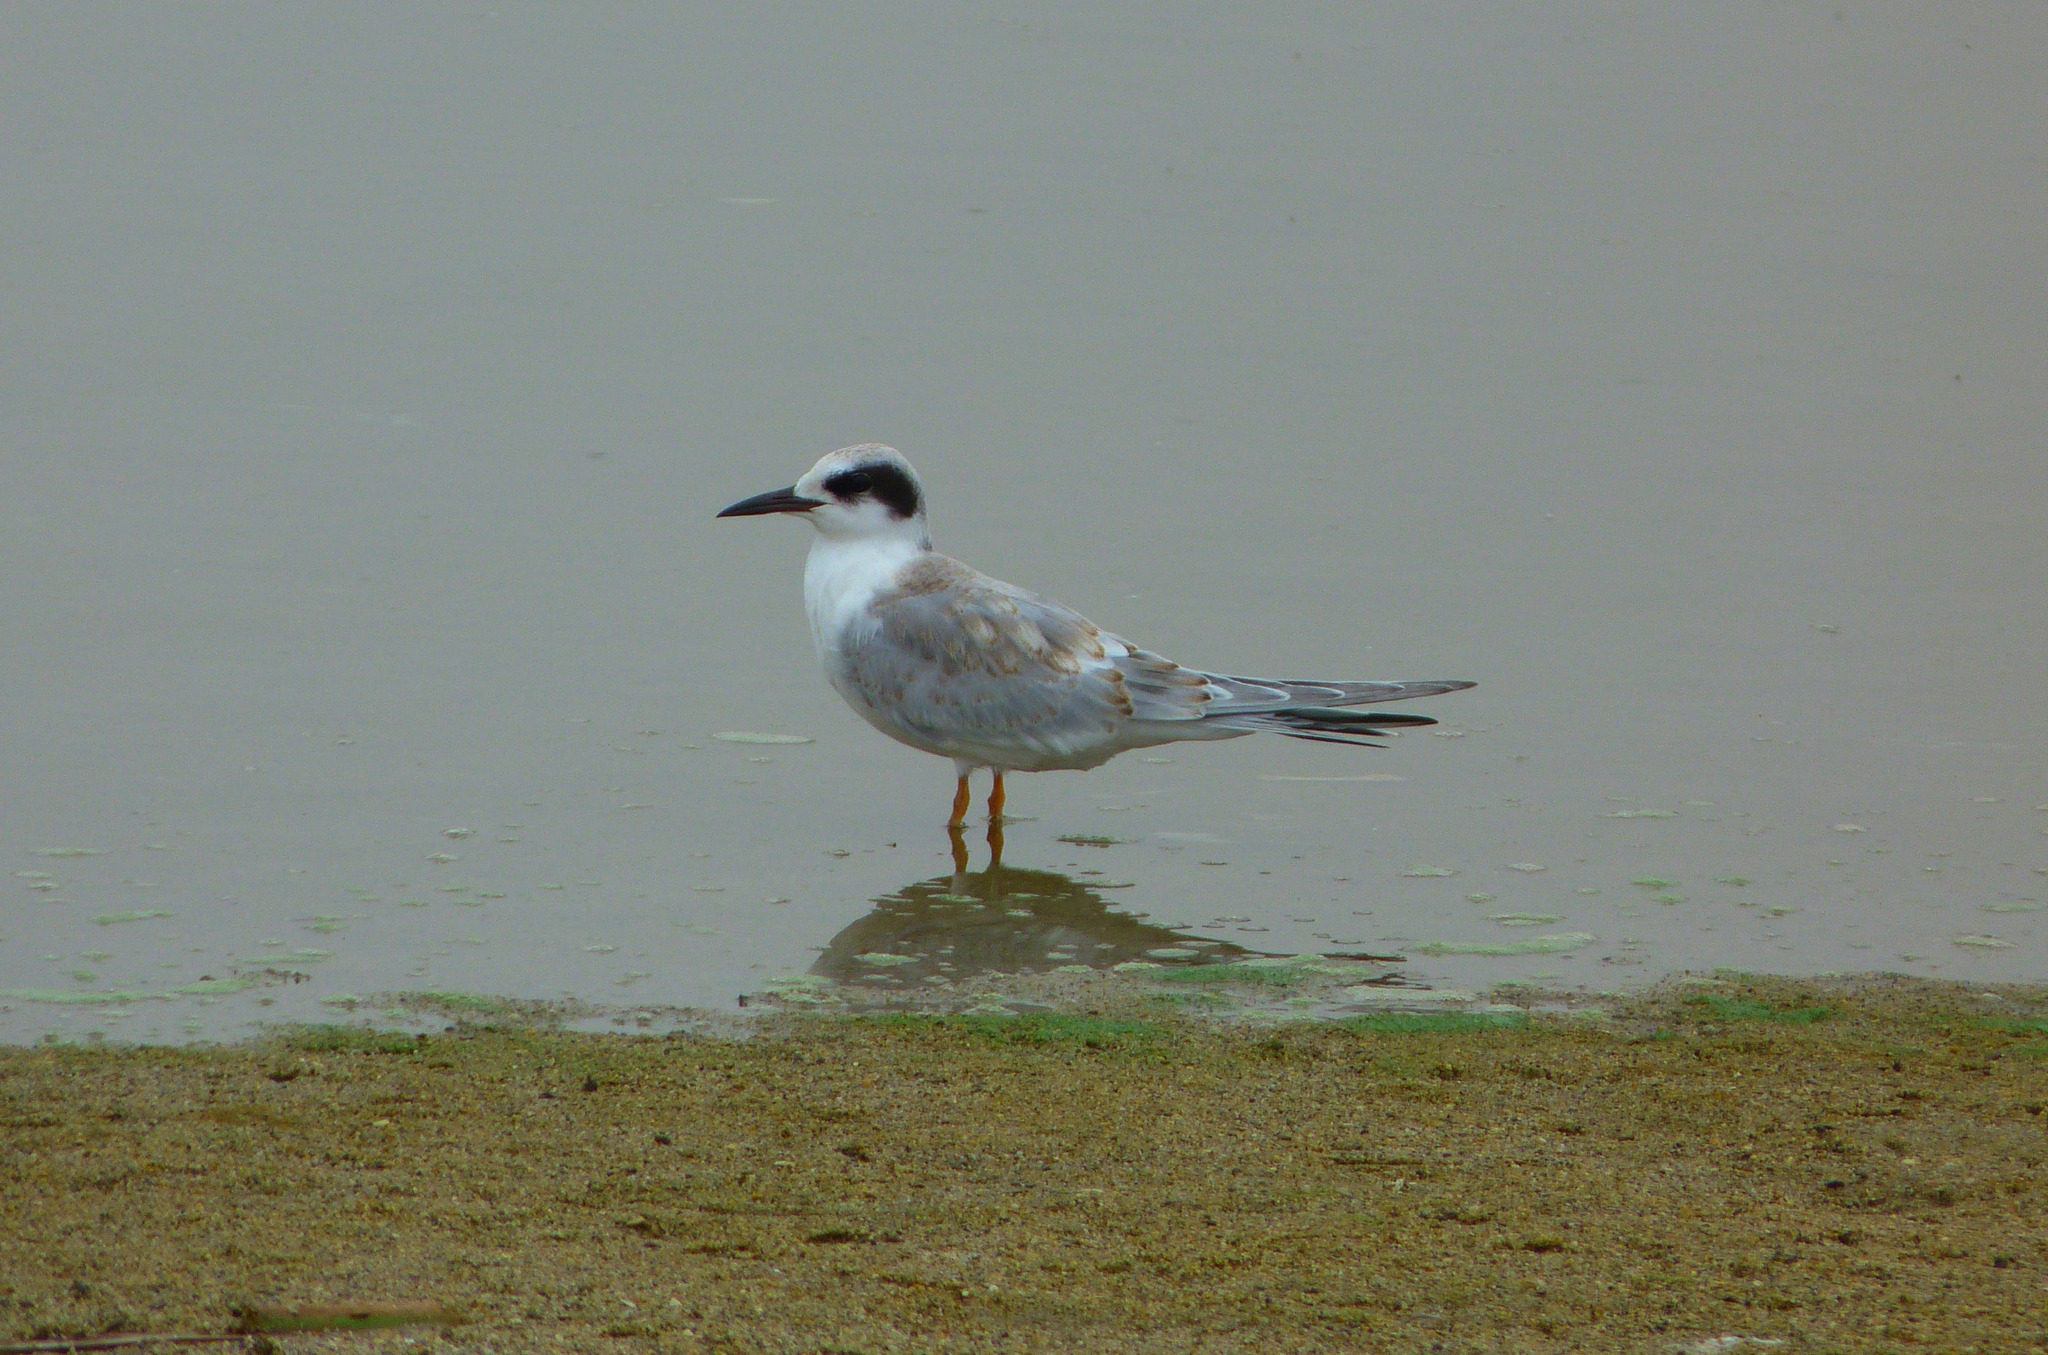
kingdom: Animalia
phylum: Chordata
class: Aves
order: Charadriiformes
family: Laridae
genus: Sterna
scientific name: Sterna forsteri
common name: Forster's tern
